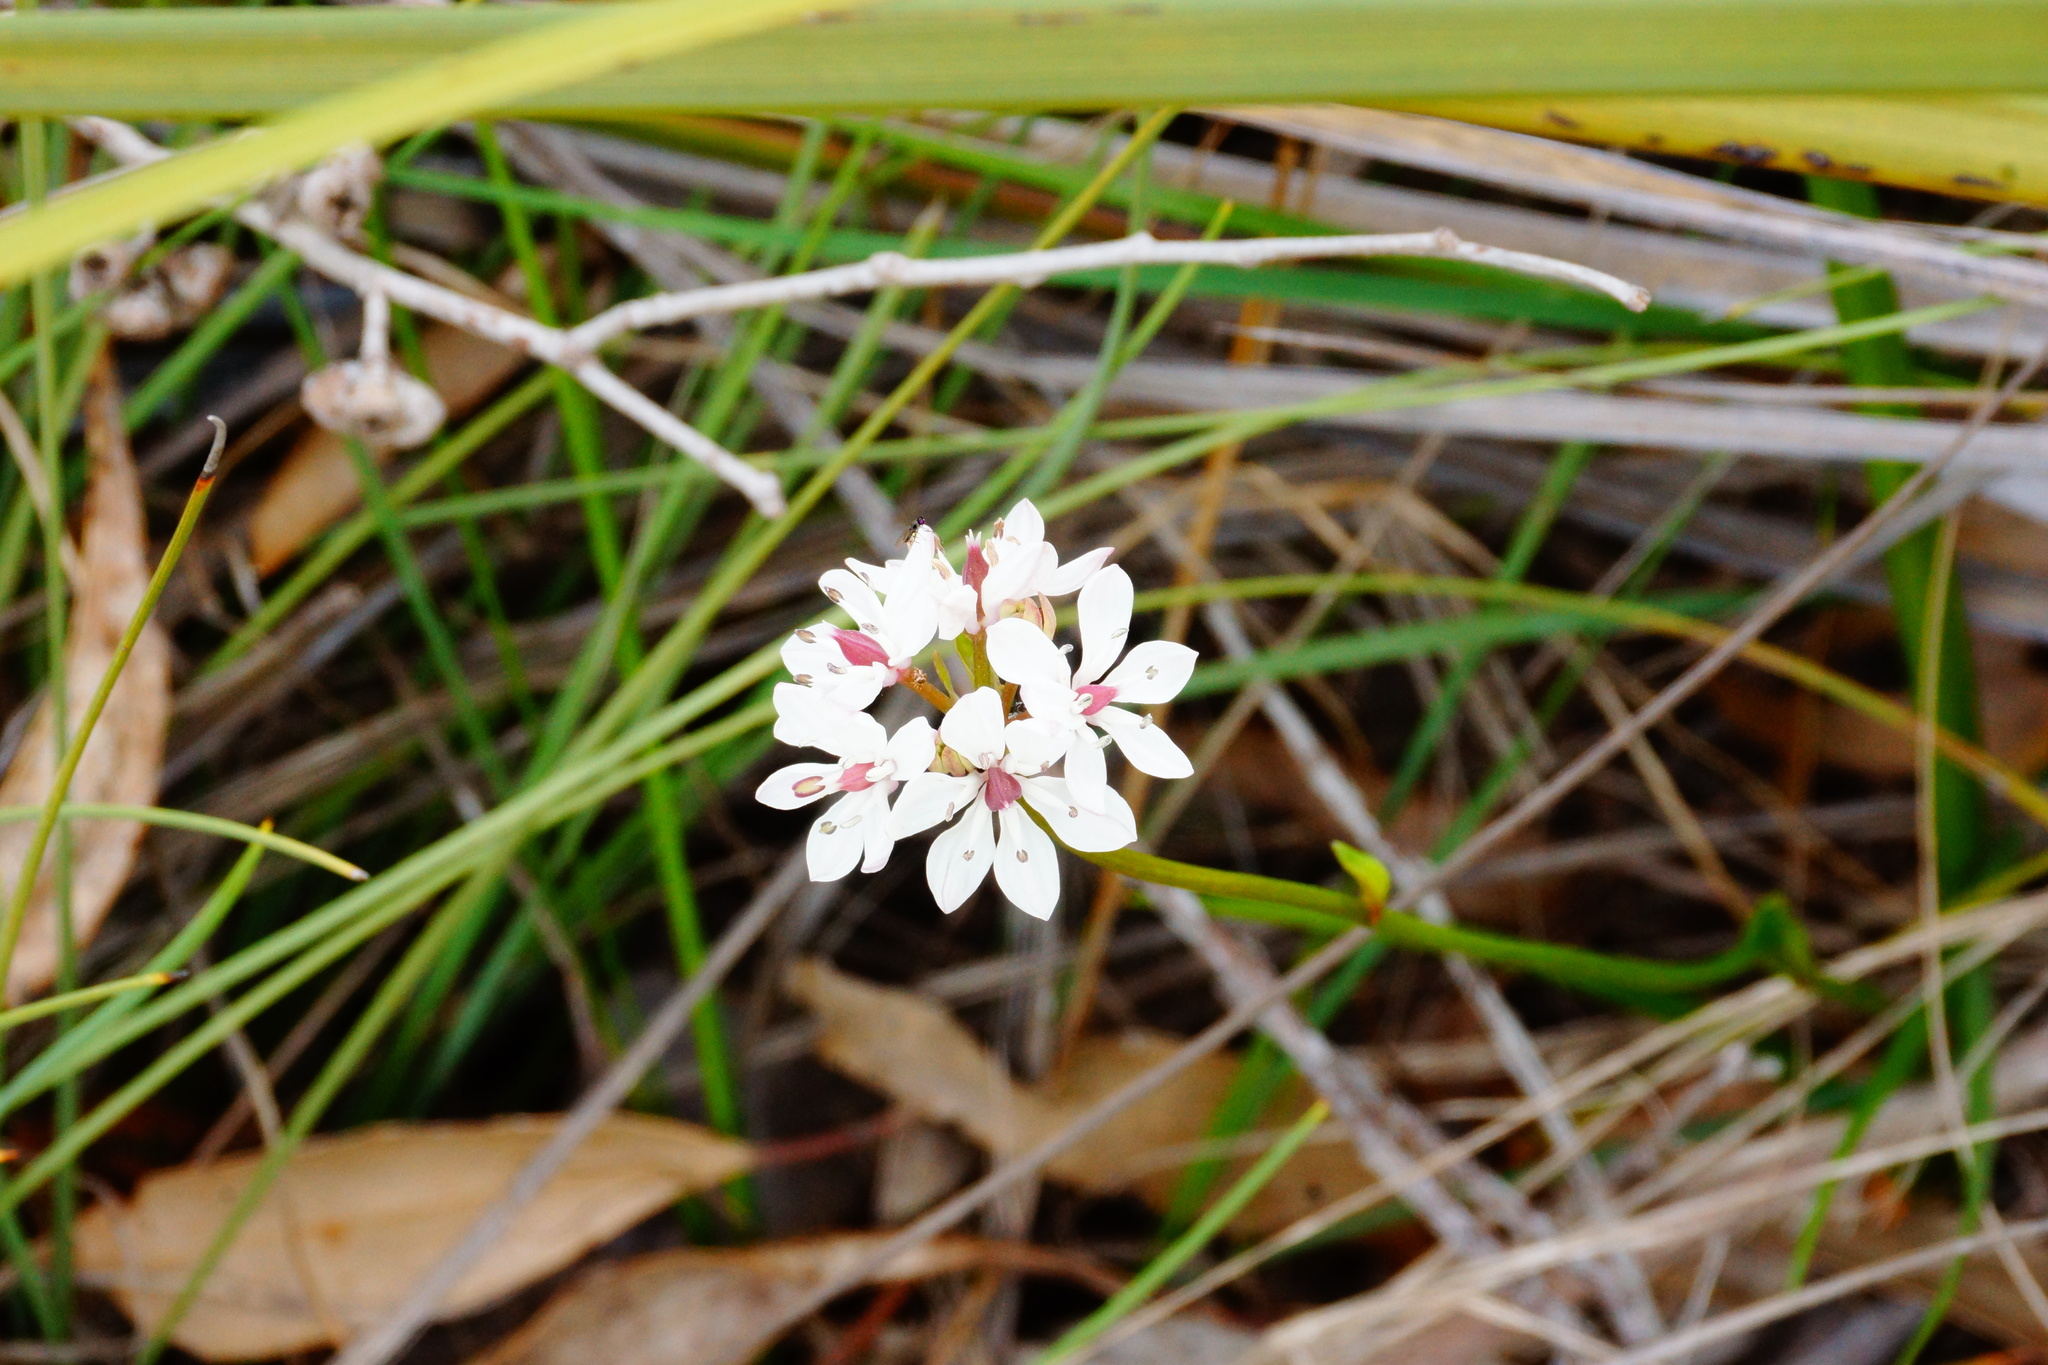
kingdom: Plantae
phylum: Tracheophyta
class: Liliopsida
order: Liliales
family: Colchicaceae
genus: Burchardia
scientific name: Burchardia umbellata
